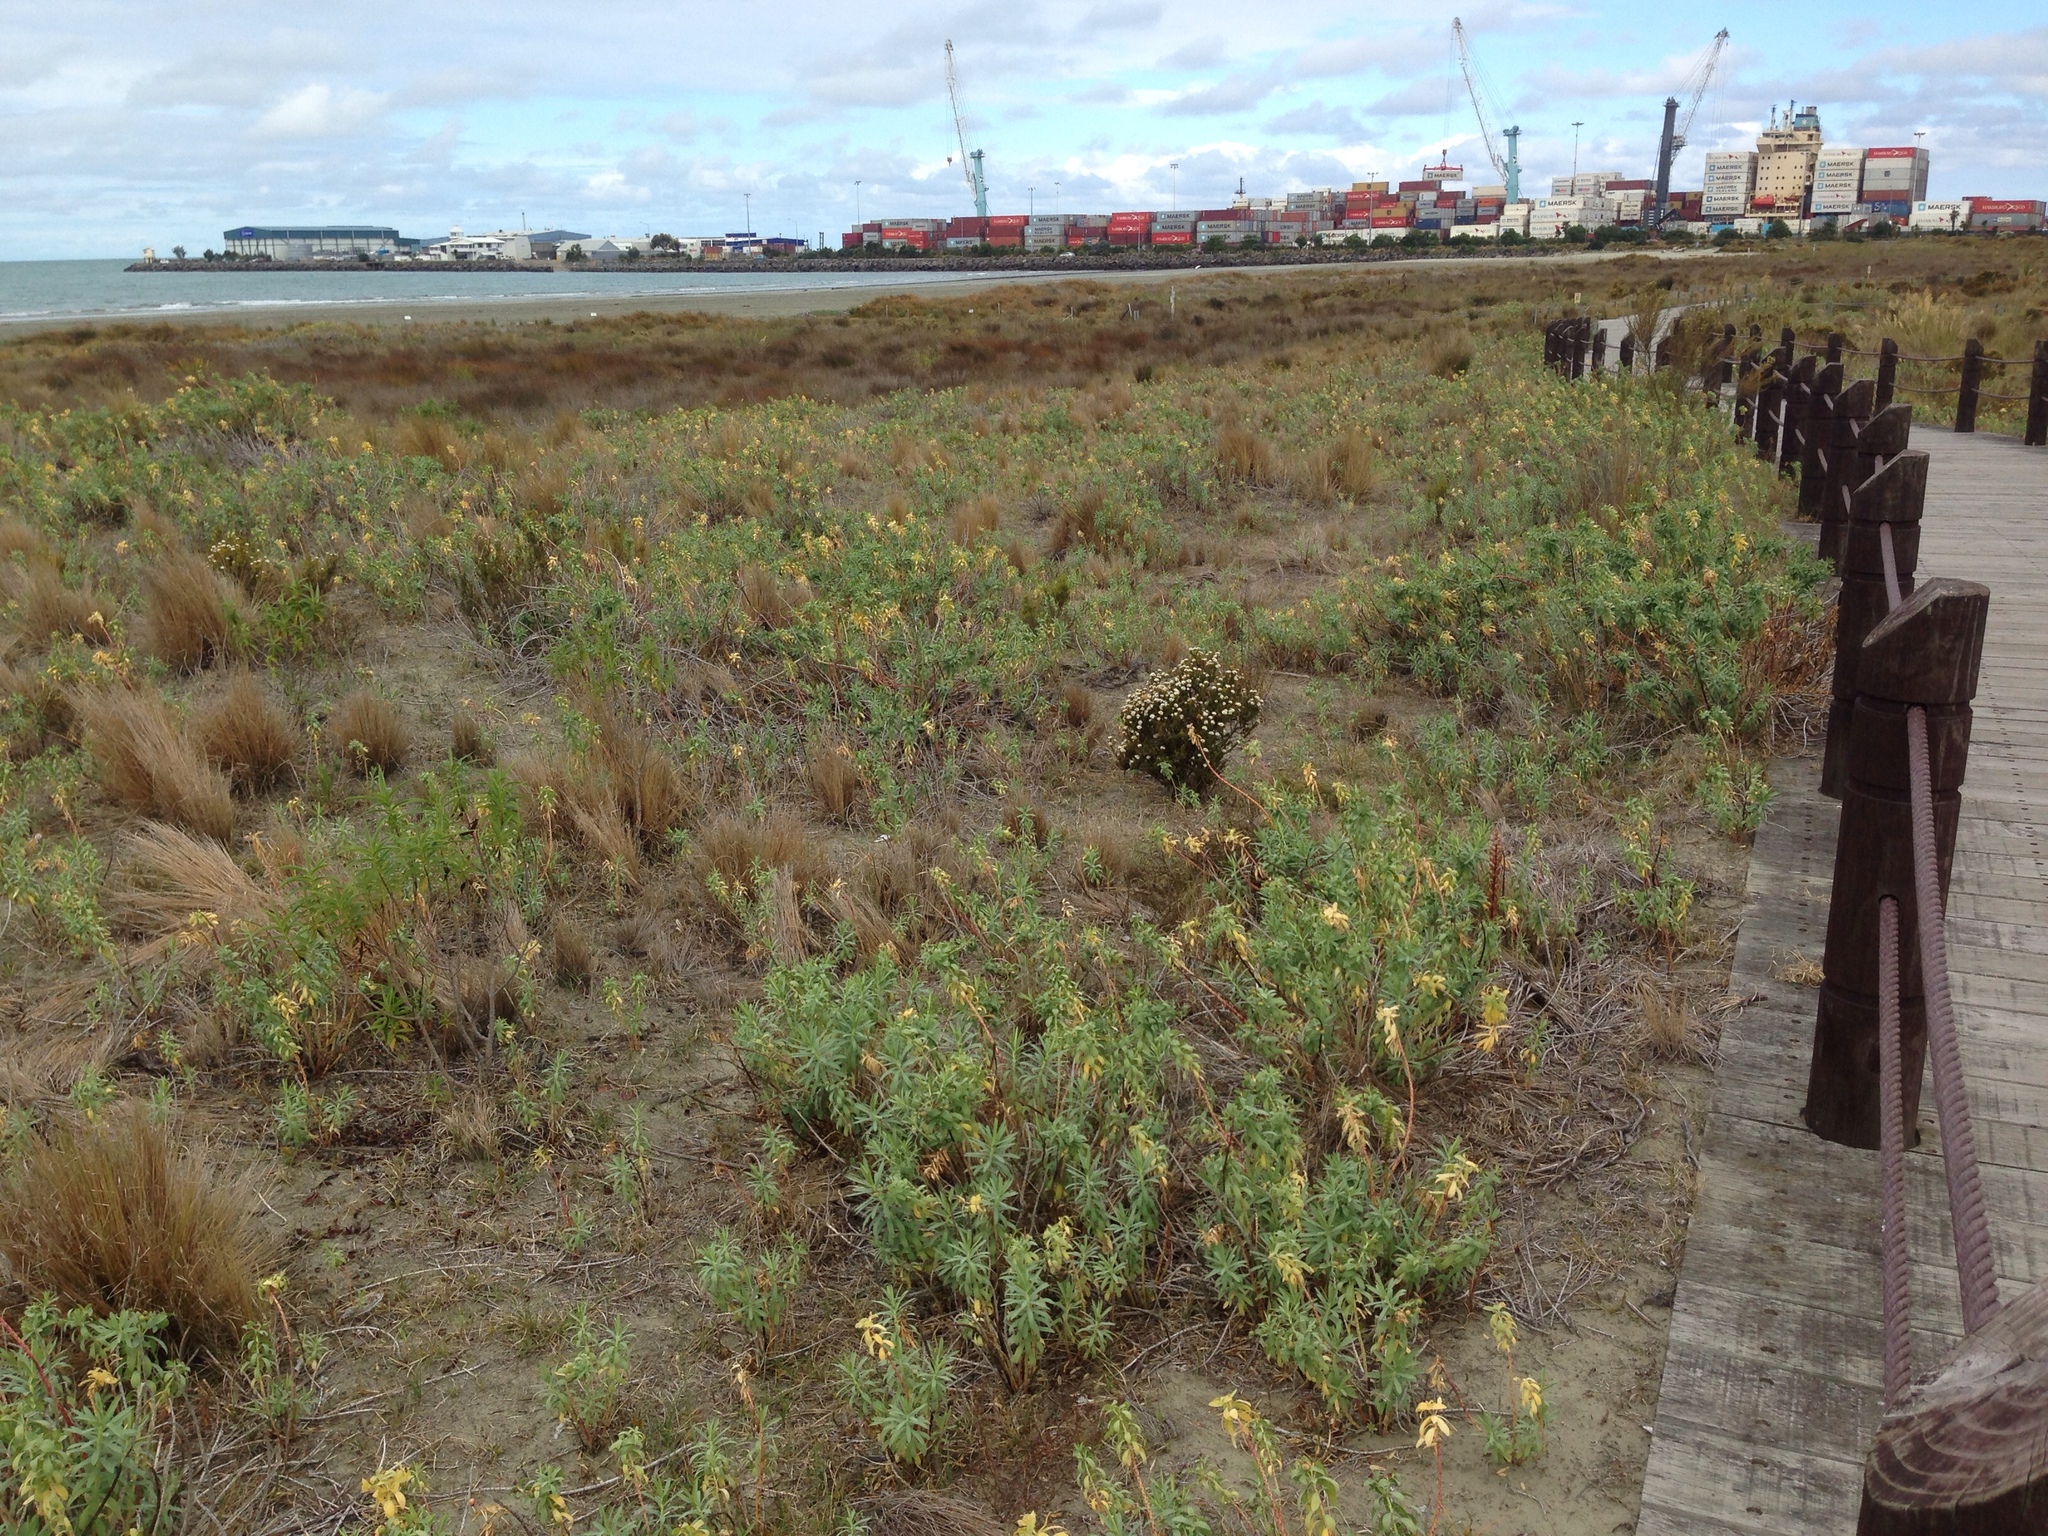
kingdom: Plantae
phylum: Tracheophyta
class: Magnoliopsida
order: Malpighiales
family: Euphorbiaceae
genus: Euphorbia
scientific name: Euphorbia glauca
